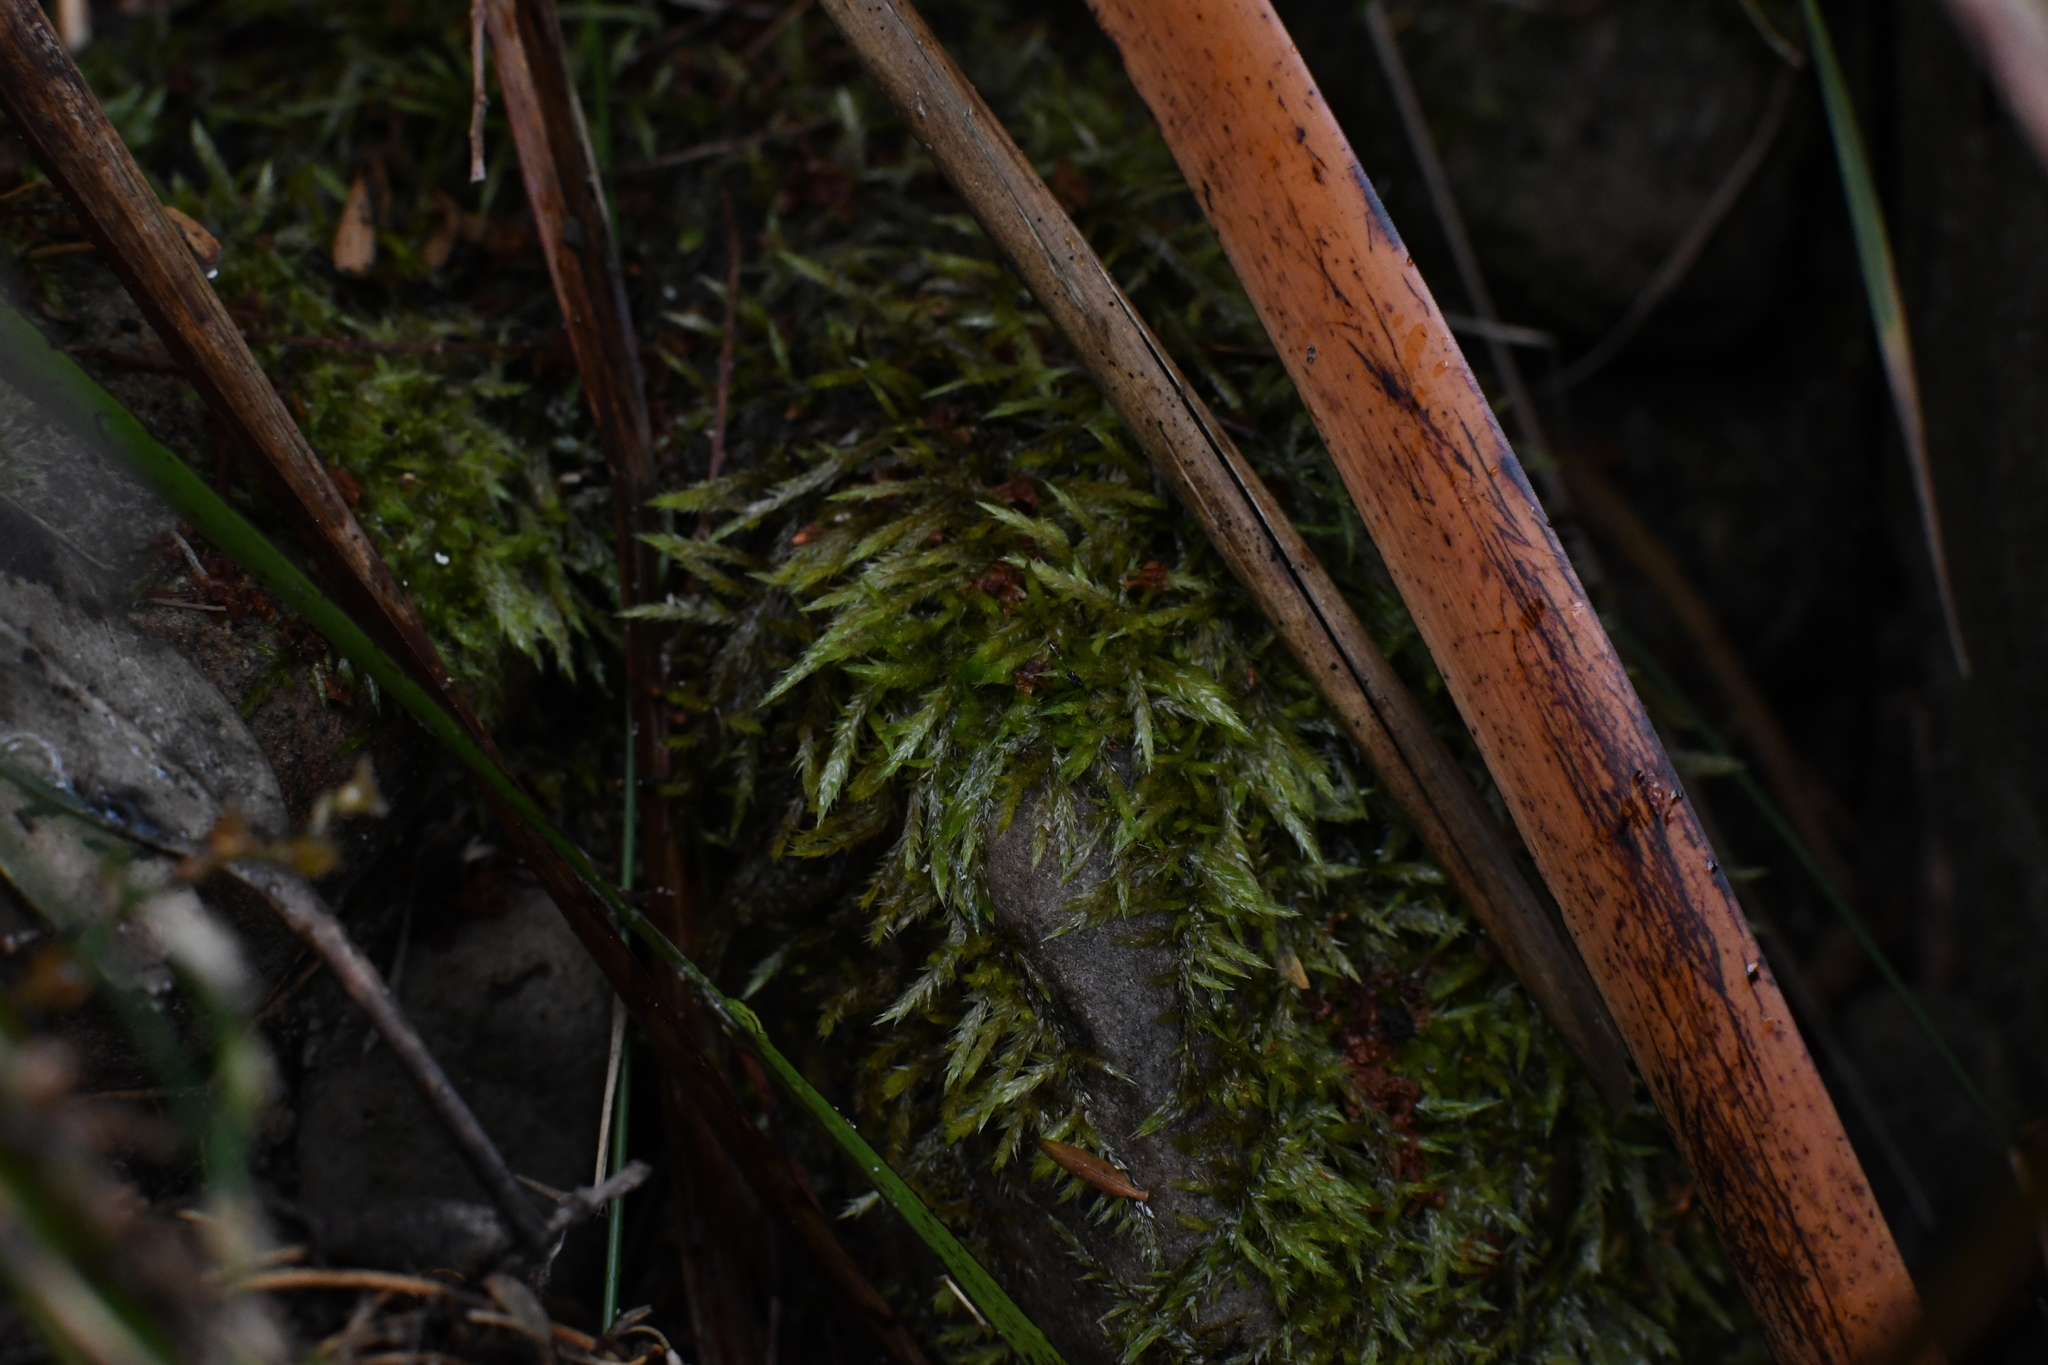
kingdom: Plantae
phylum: Bryophyta
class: Bryopsida
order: Hypnales
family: Pylaisiadelphaceae
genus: Wijkia
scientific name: Wijkia extenuata
